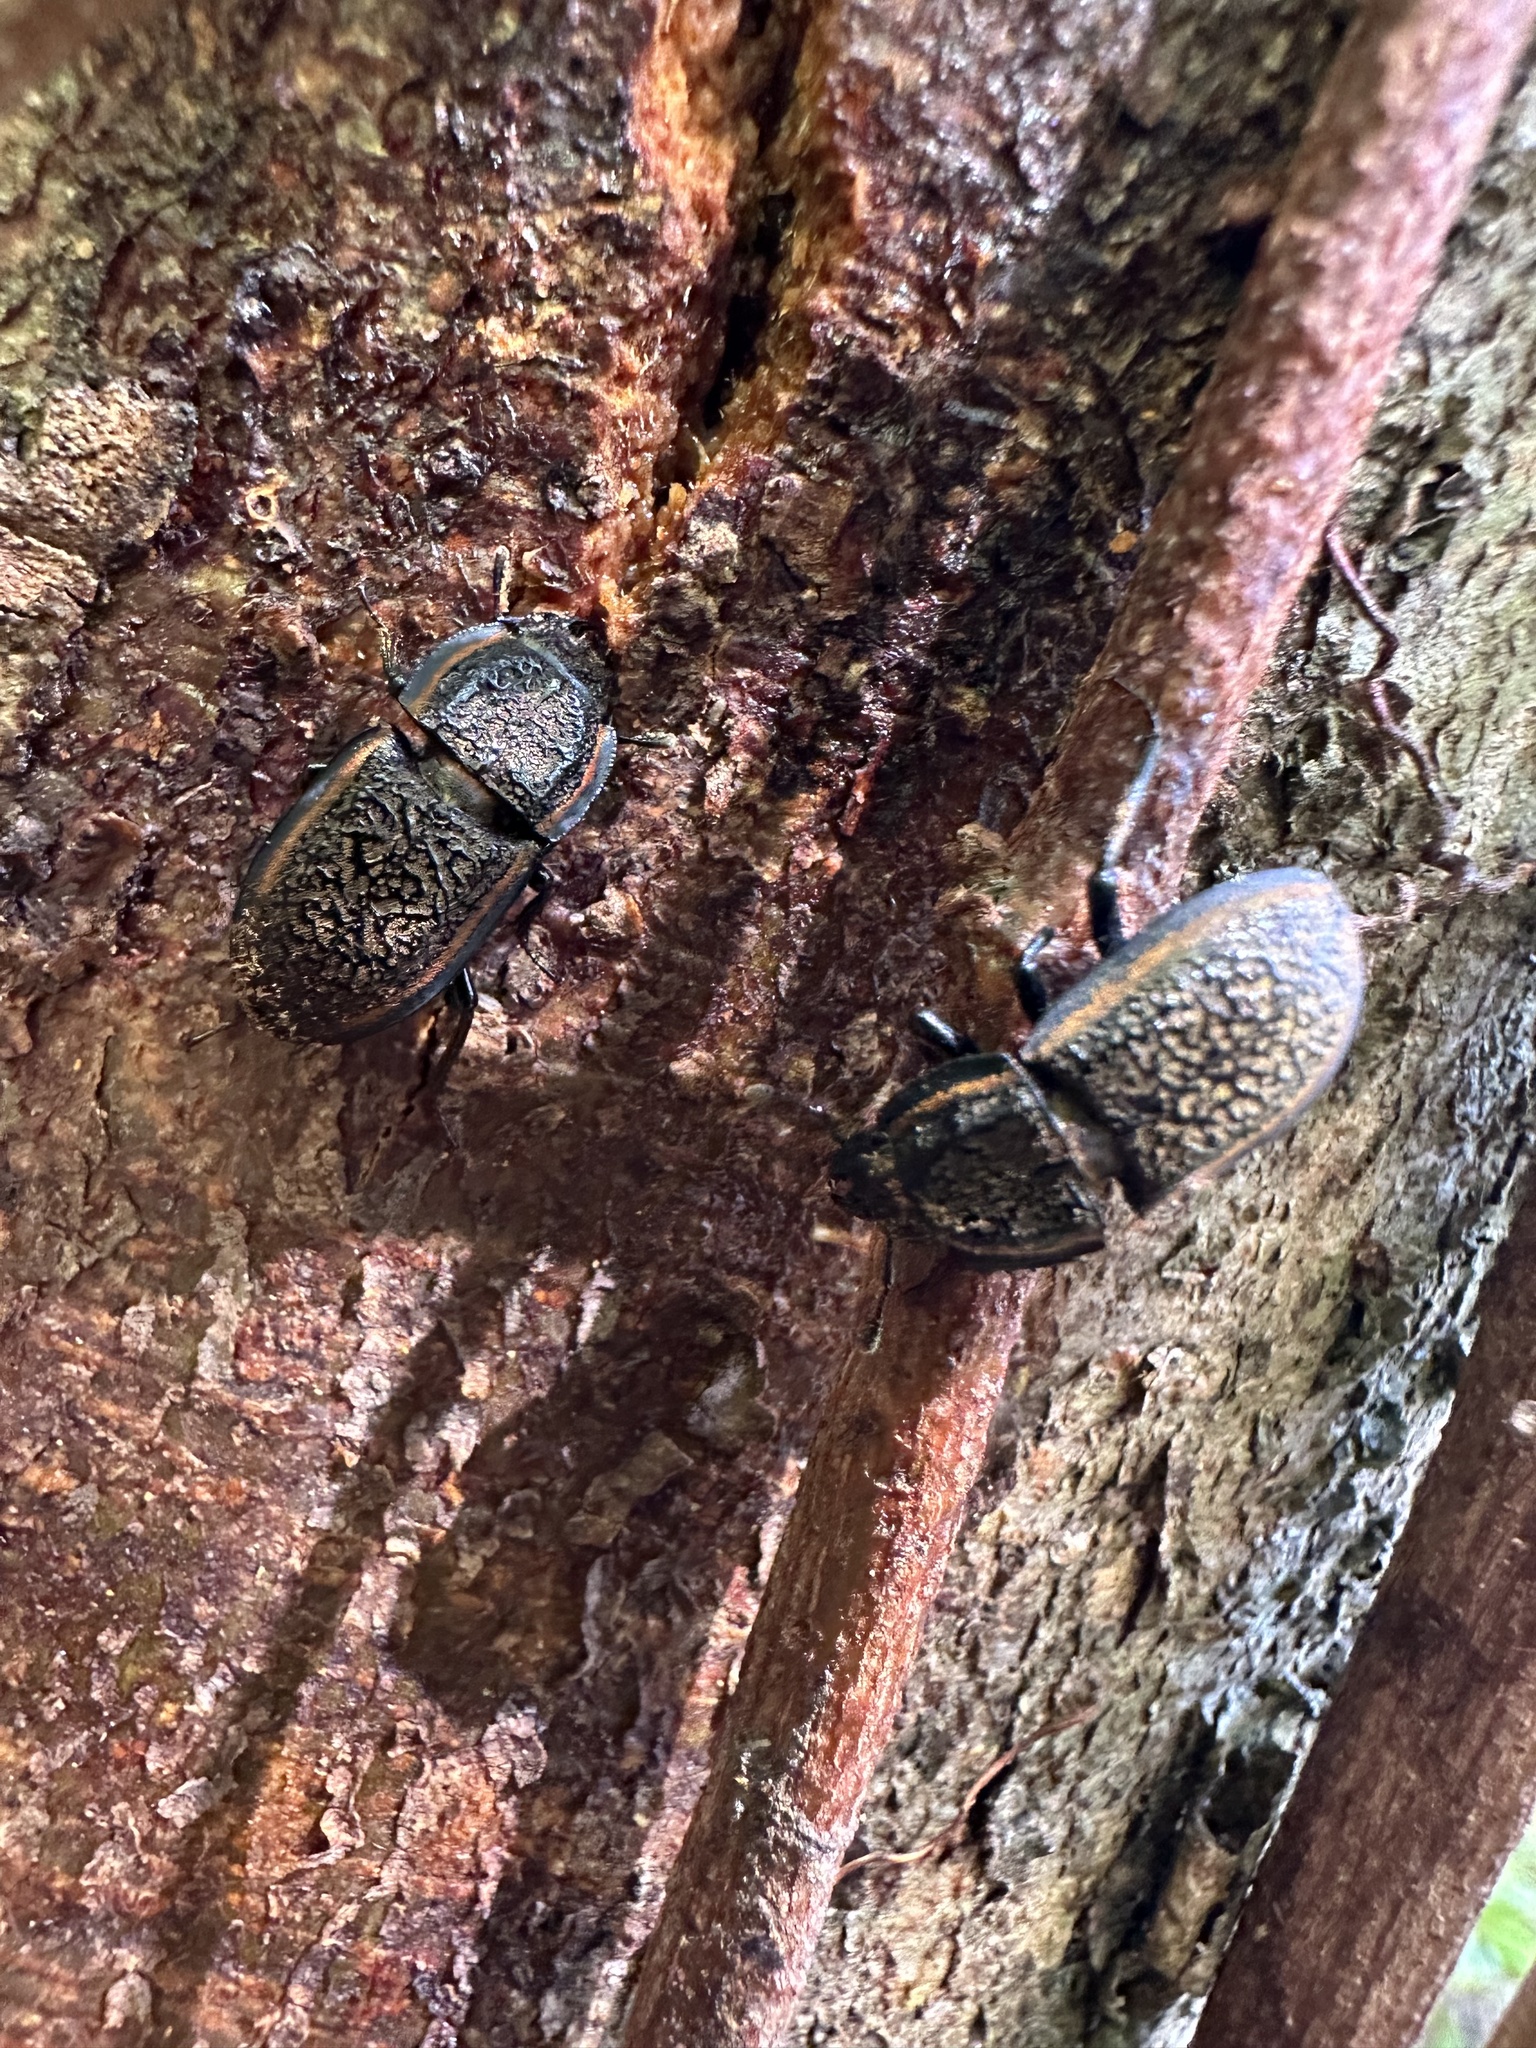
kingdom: Animalia
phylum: Arthropoda
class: Insecta
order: Coleoptera
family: Lucanidae
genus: Erichius
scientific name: Erichius caelatus
